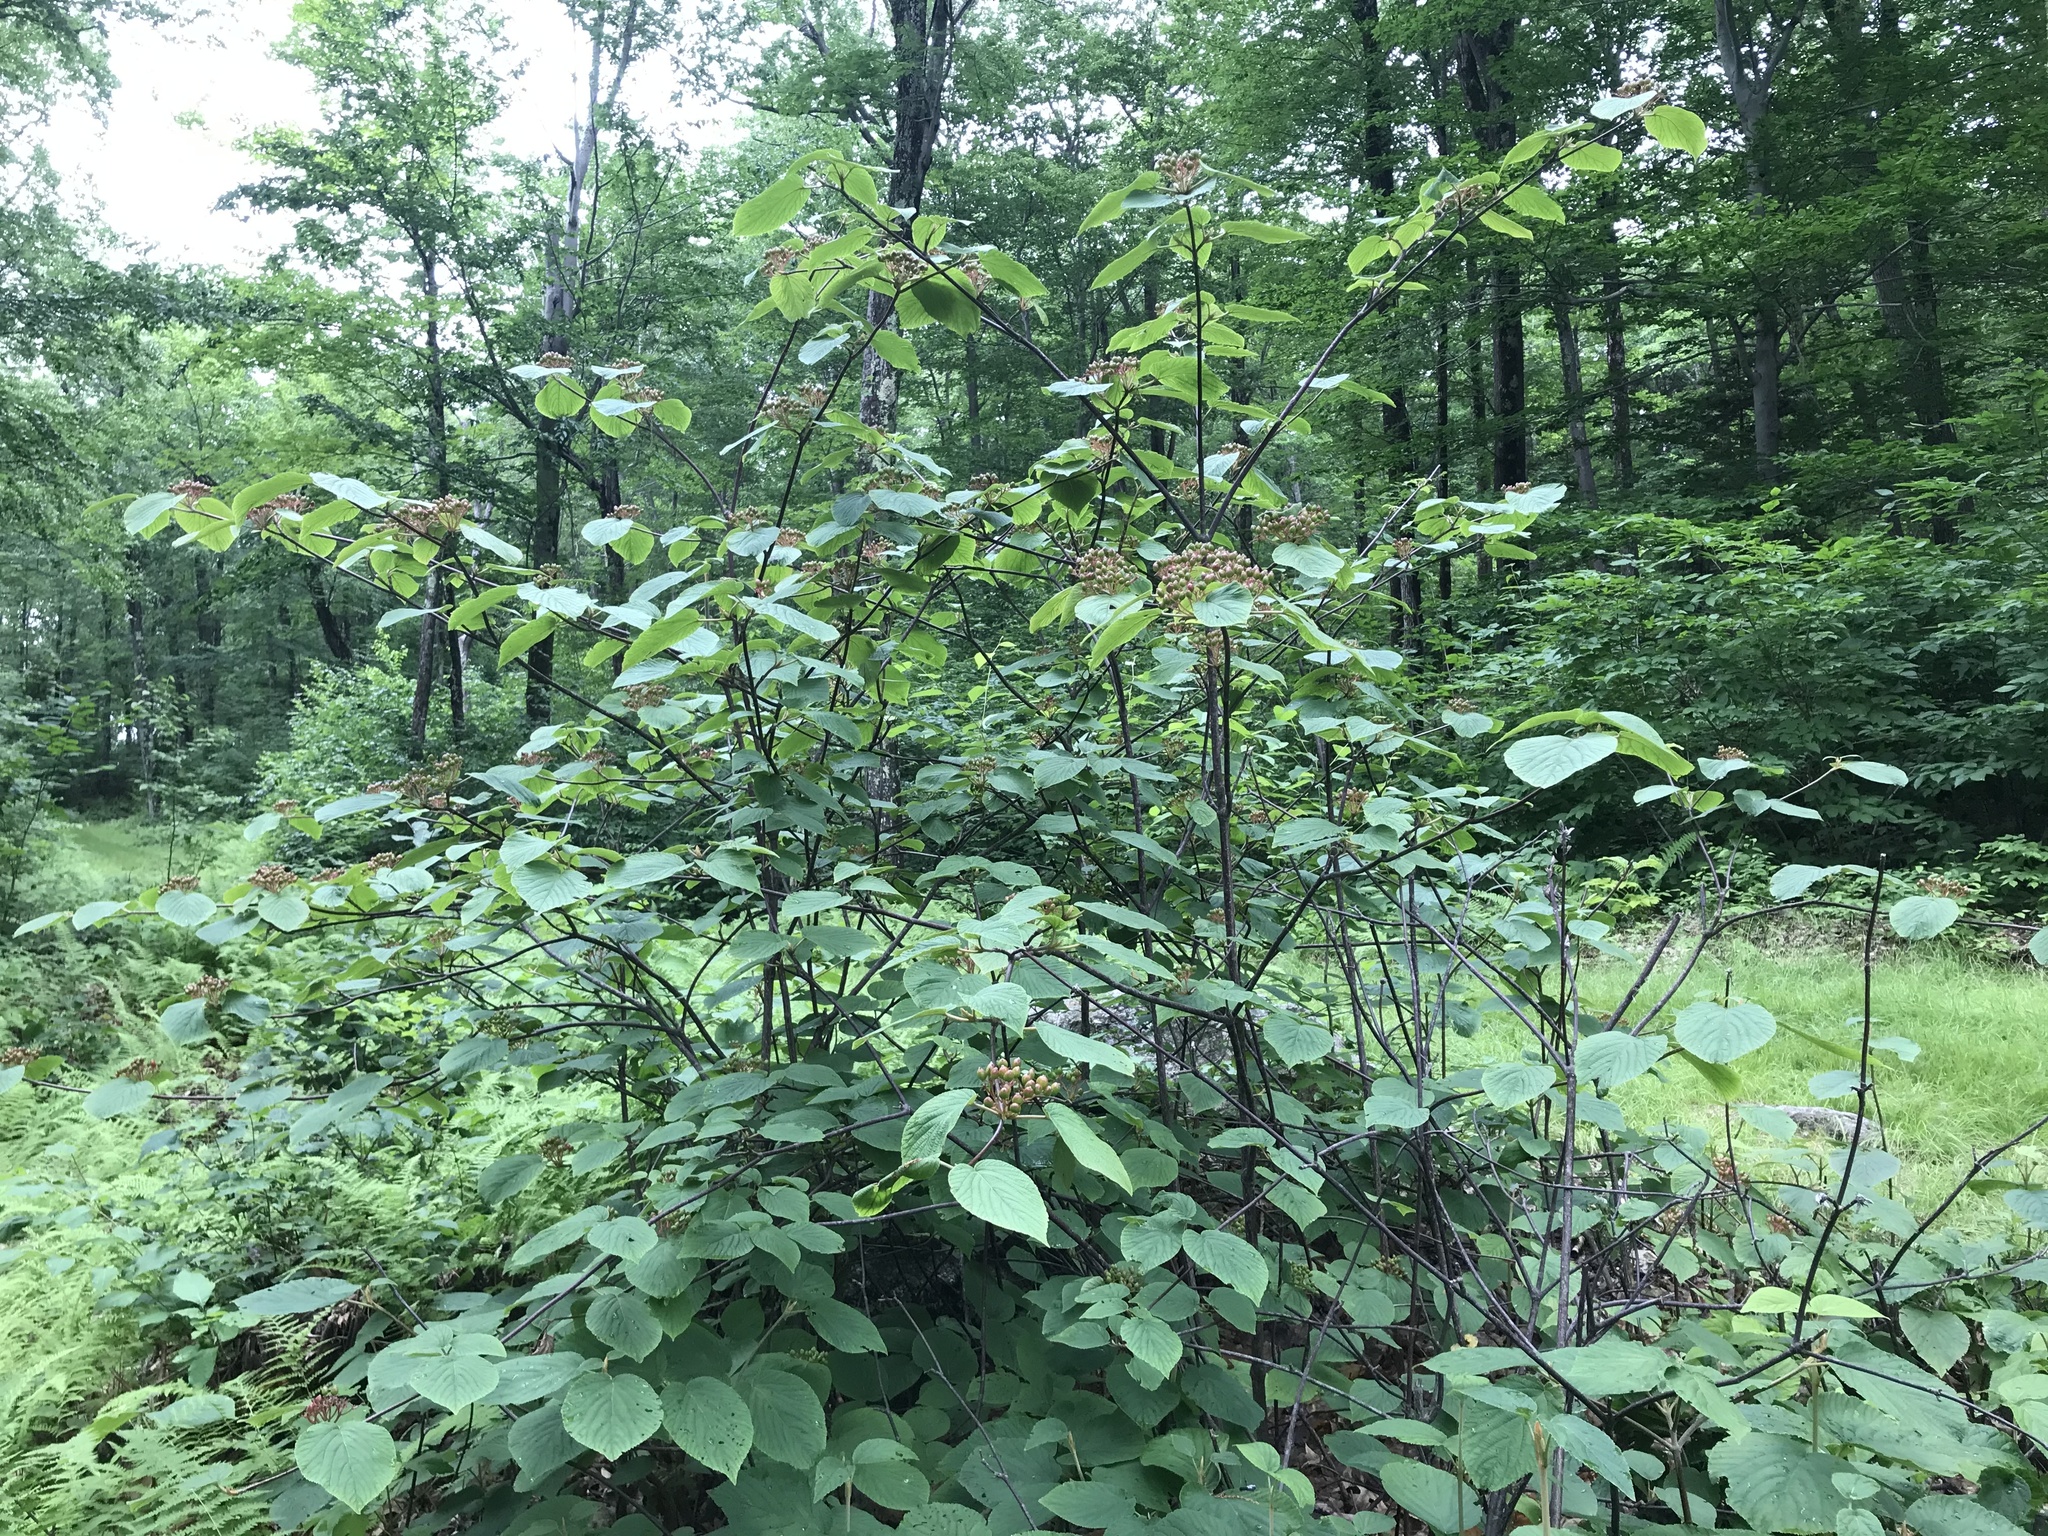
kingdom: Plantae
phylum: Tracheophyta
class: Magnoliopsida
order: Dipsacales
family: Viburnaceae
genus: Viburnum
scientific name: Viburnum lantanoides
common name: Hobblebush
